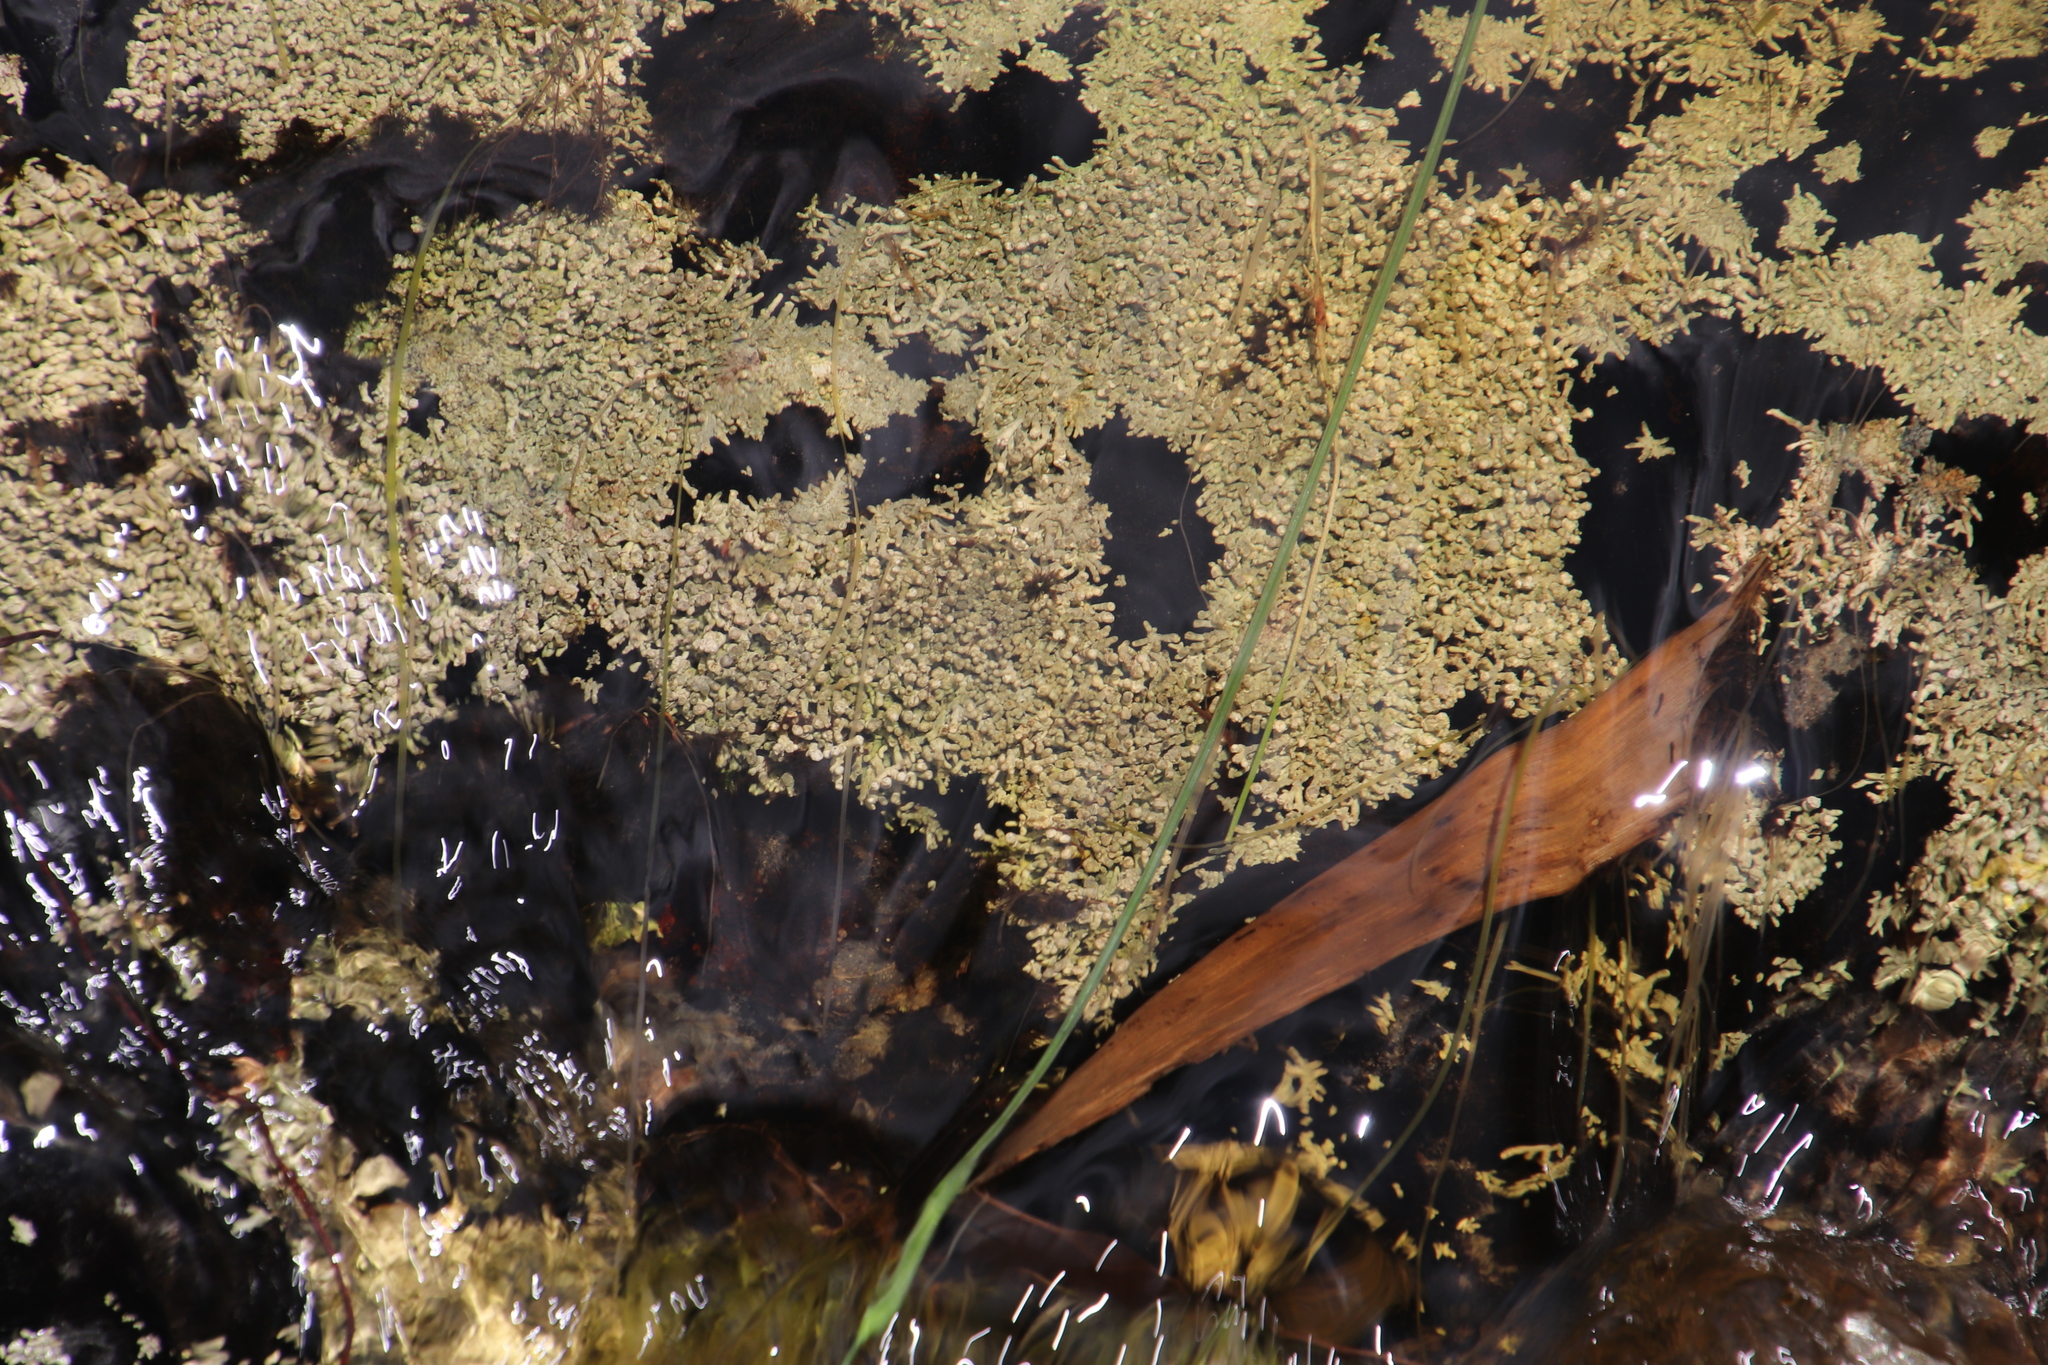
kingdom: Fungi
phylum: Ascomycota
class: Lecanoromycetes
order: Pertusariales
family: Icmadophilaceae
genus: Siphula
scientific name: Siphula verrucigera
